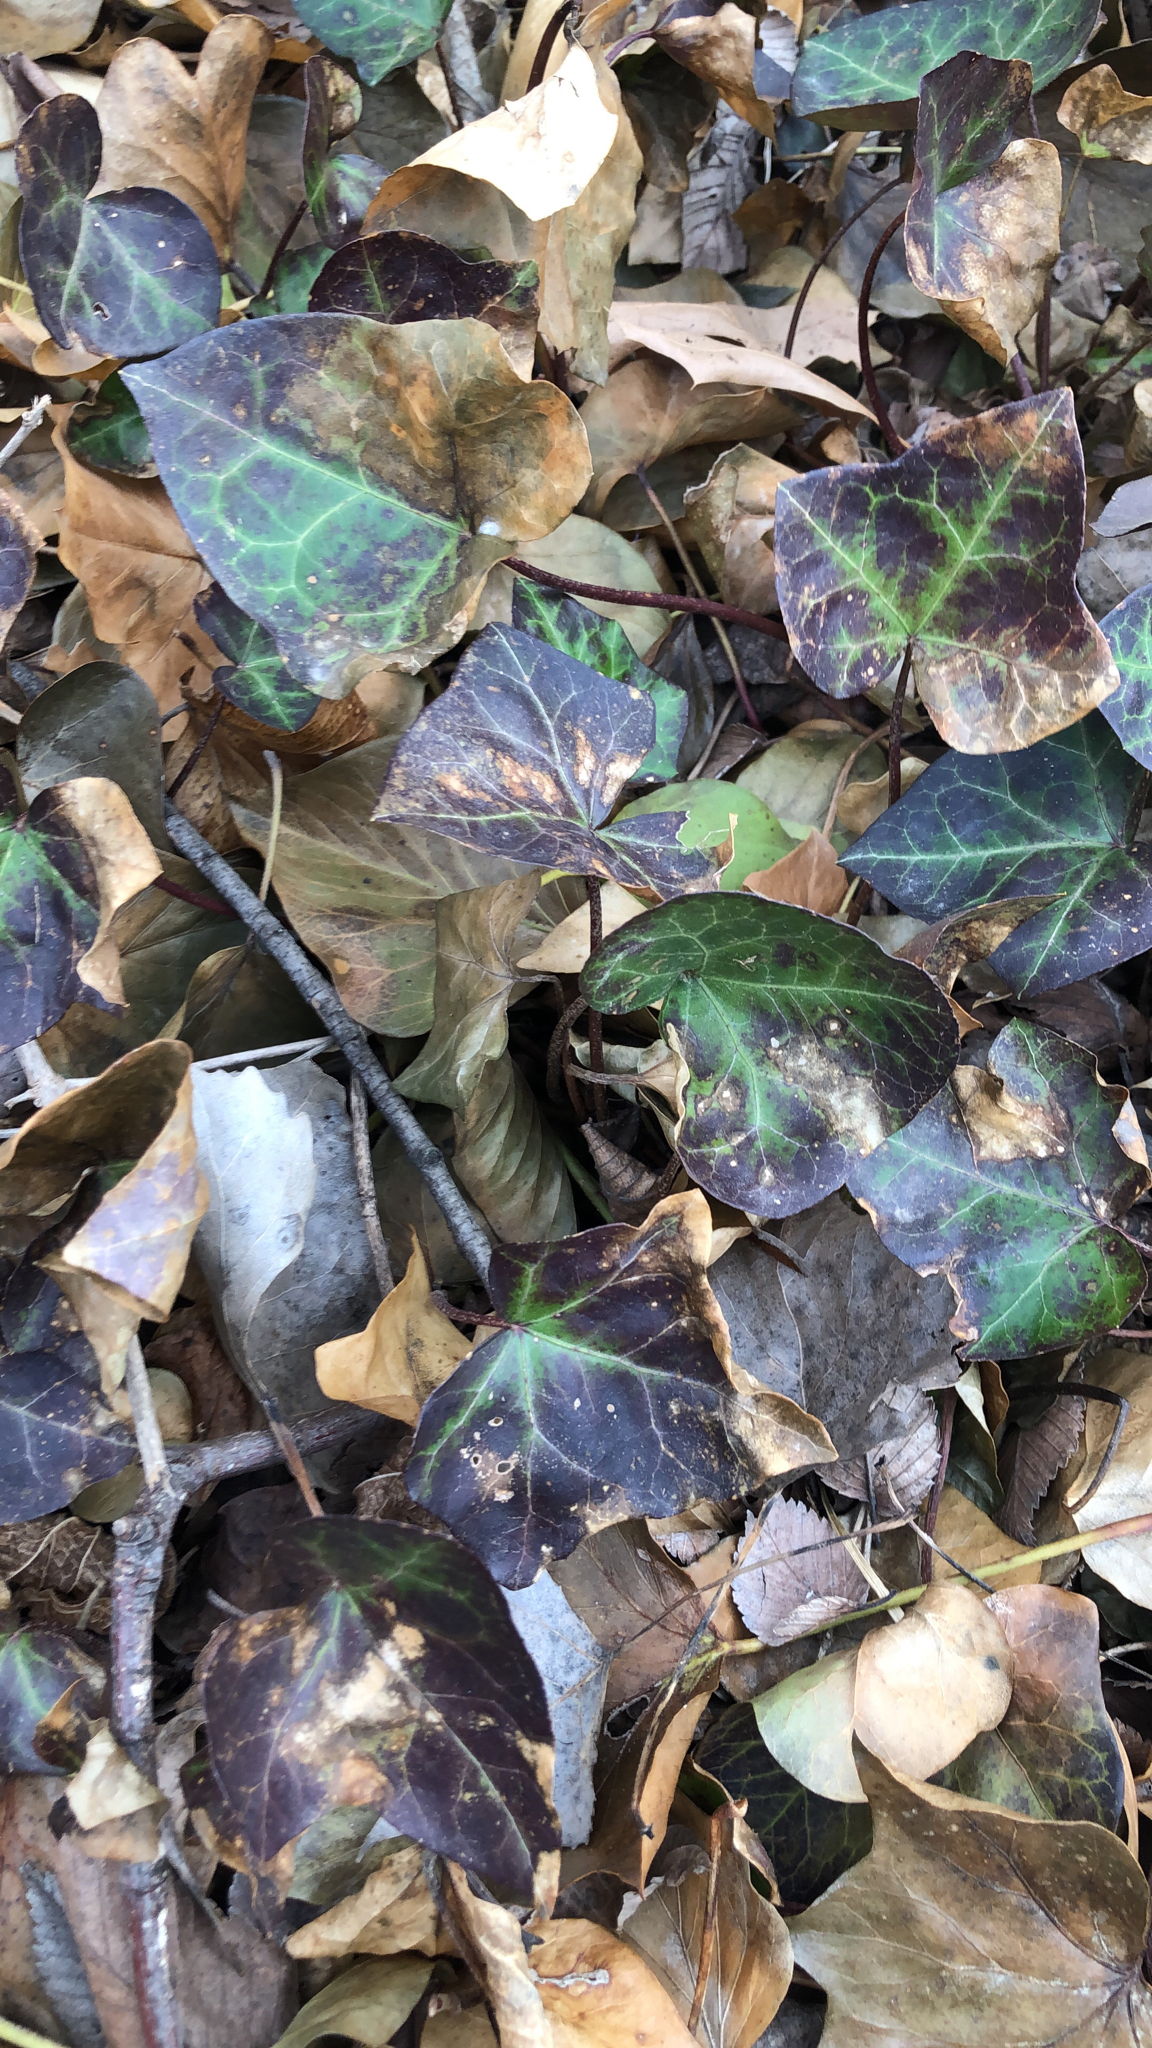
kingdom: Plantae
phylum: Tracheophyta
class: Magnoliopsida
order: Apiales
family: Araliaceae
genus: Hedera
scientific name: Hedera helix
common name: Ivy
